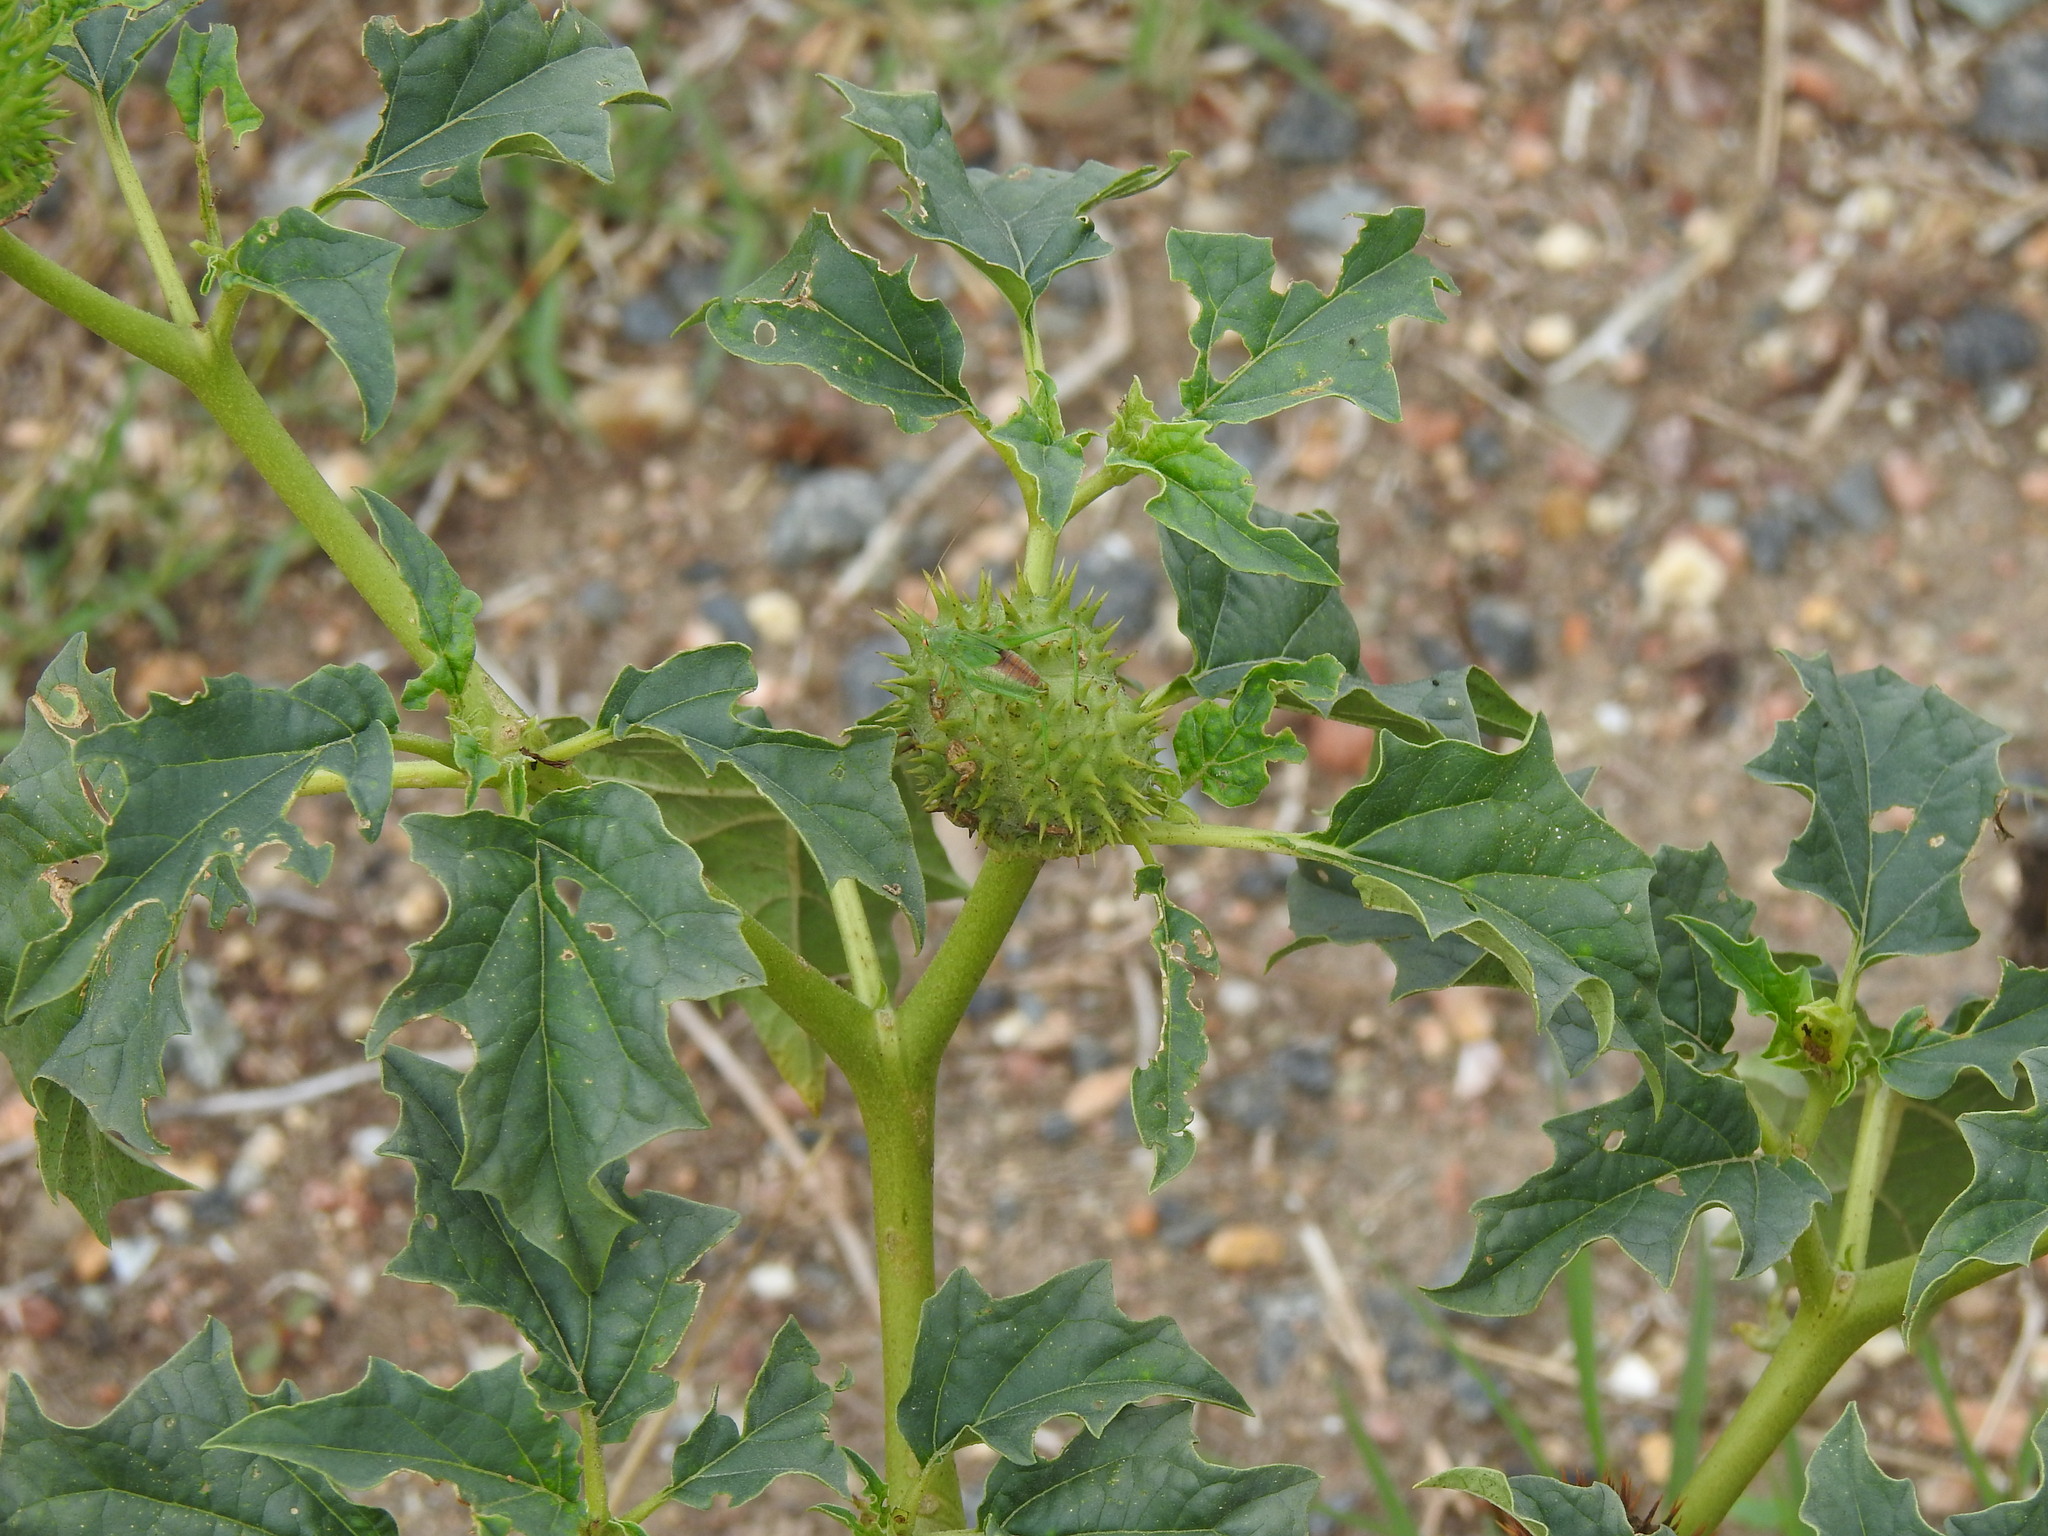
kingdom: Plantae
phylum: Tracheophyta
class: Magnoliopsida
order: Solanales
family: Solanaceae
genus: Datura
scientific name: Datura stramonium
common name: Thorn-apple
